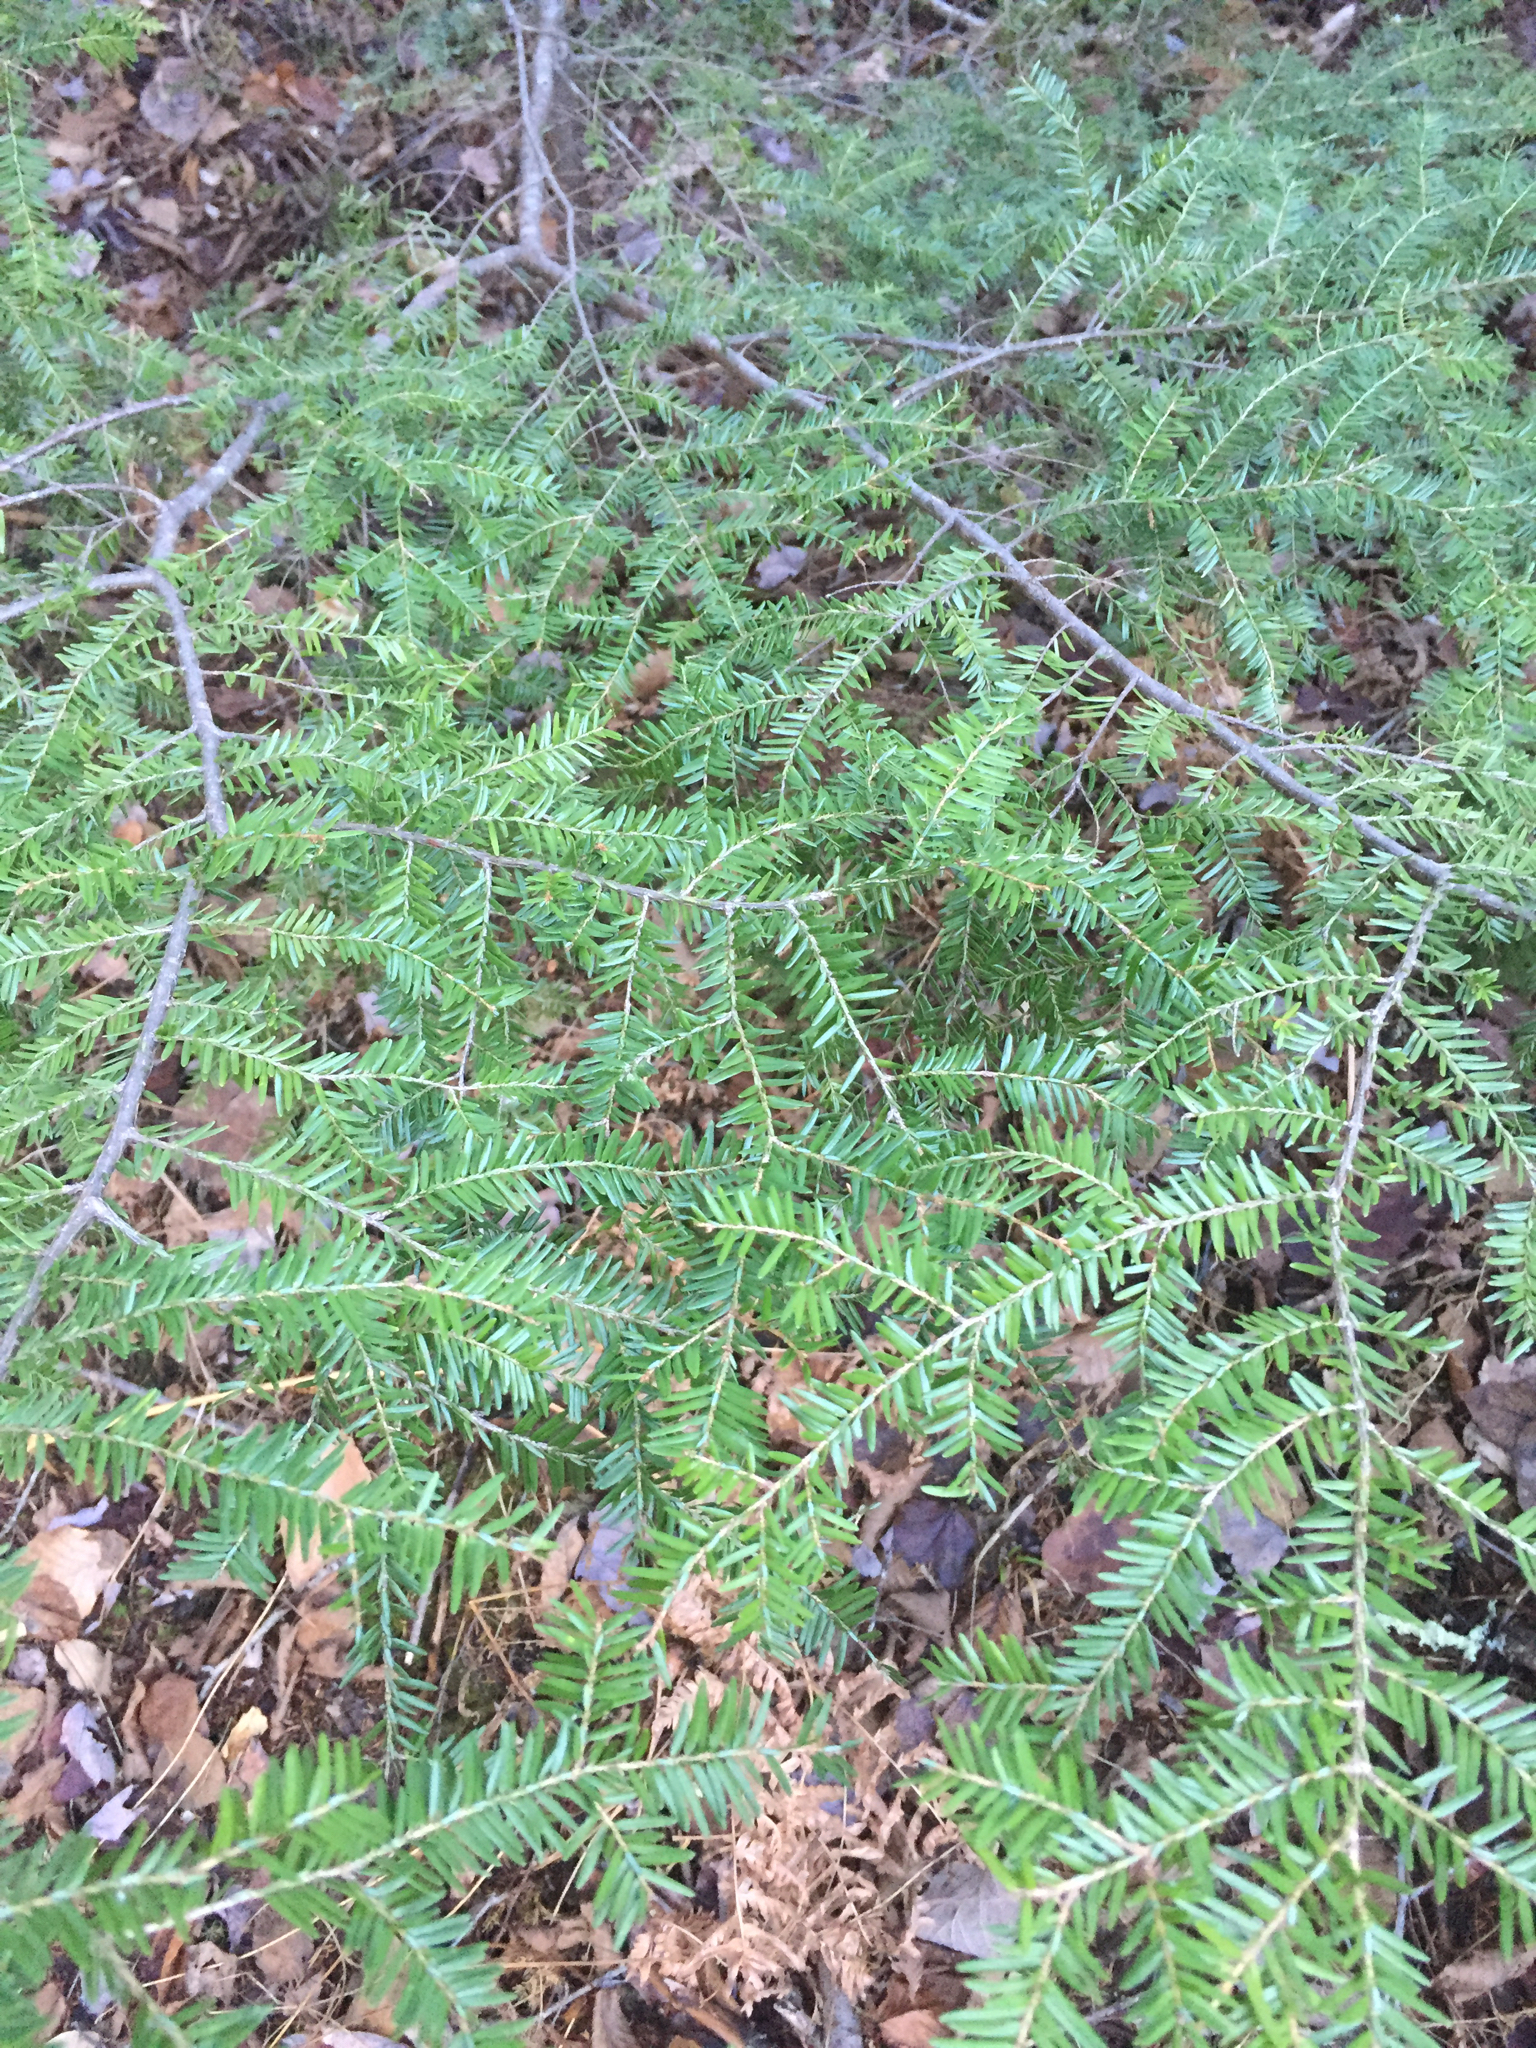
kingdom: Plantae
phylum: Tracheophyta
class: Pinopsida
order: Pinales
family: Pinaceae
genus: Tsuga
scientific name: Tsuga canadensis
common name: Eastern hemlock
